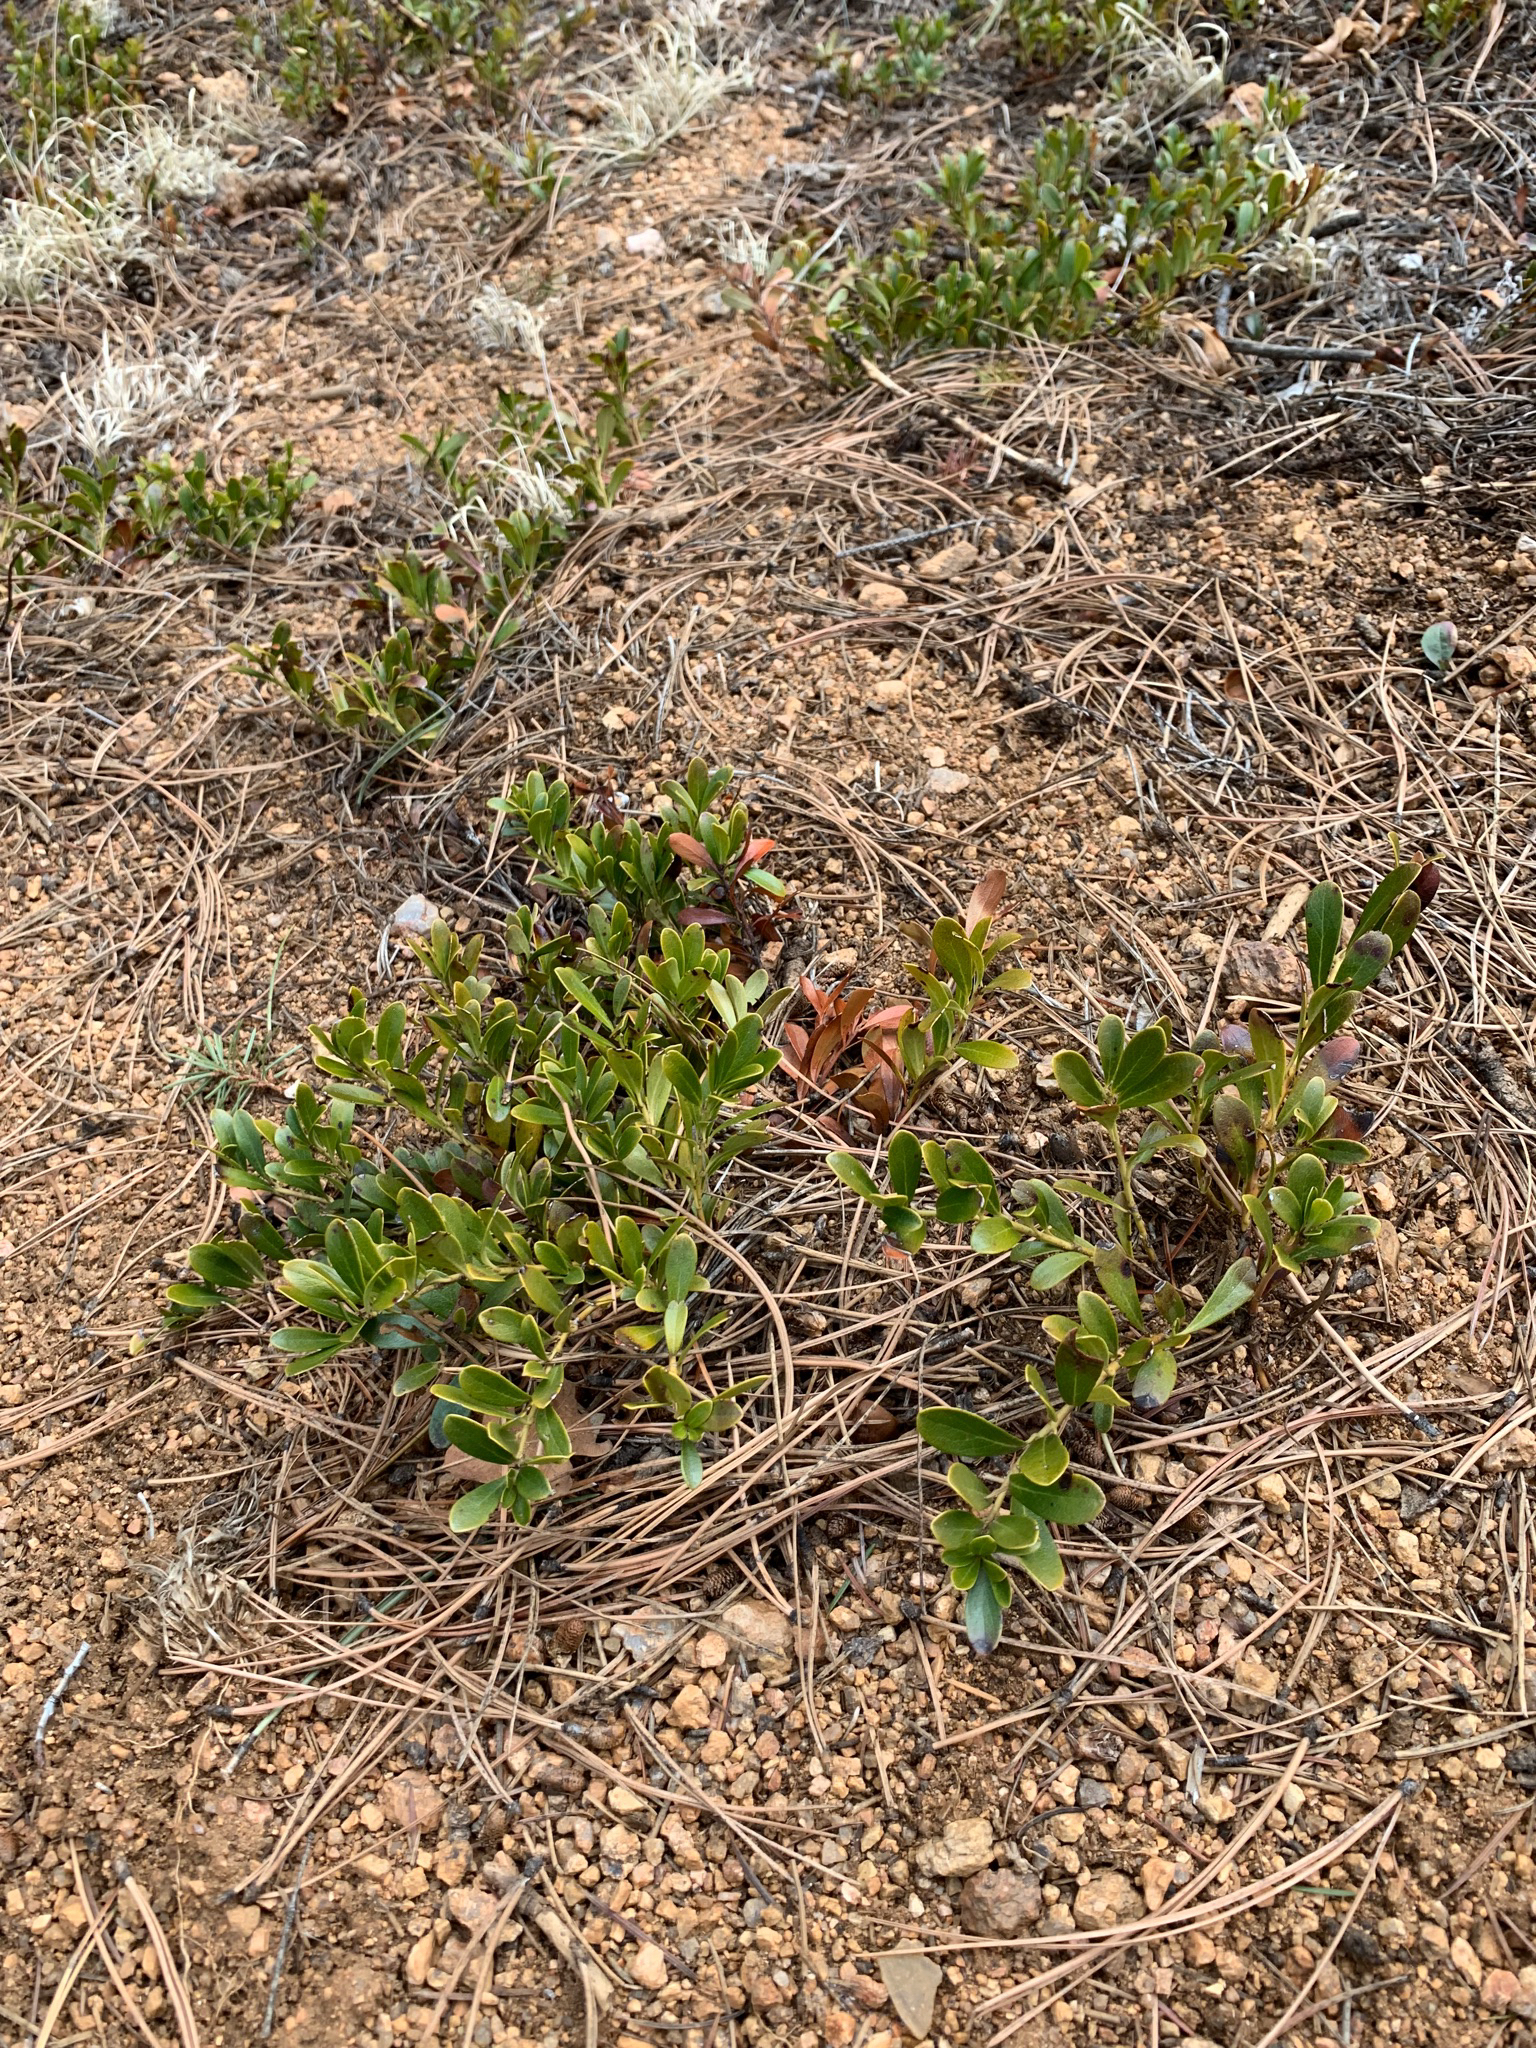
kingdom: Plantae
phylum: Tracheophyta
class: Magnoliopsida
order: Ericales
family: Ericaceae
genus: Arctostaphylos
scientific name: Arctostaphylos uva-ursi
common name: Bearberry
